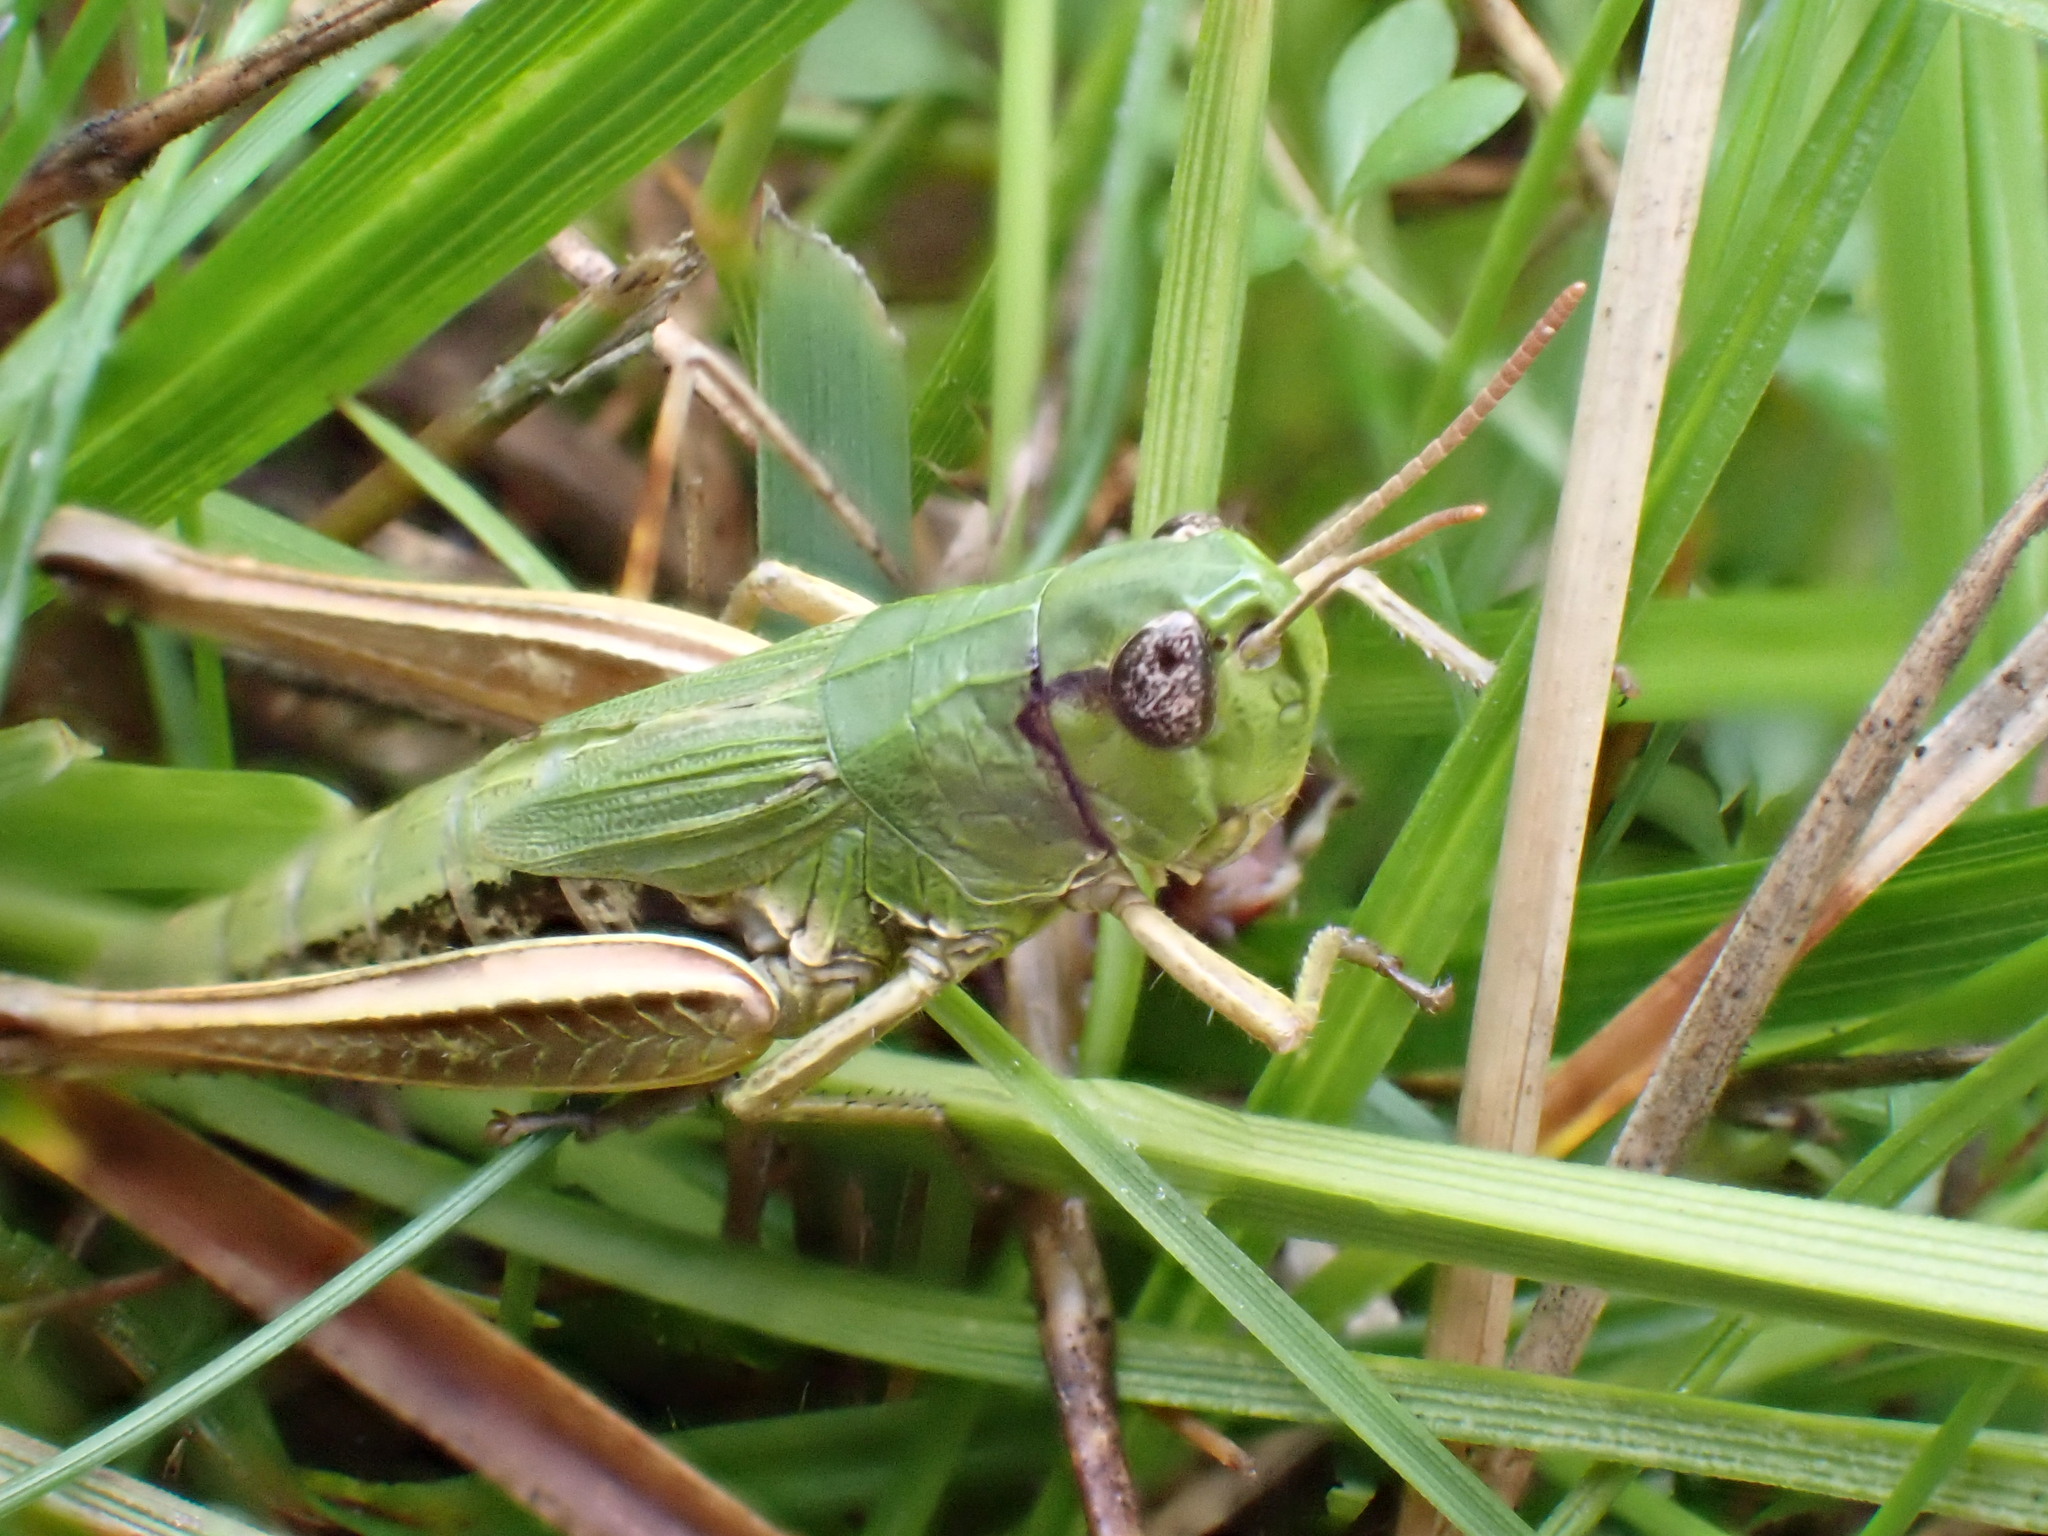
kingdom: Animalia
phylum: Arthropoda
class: Insecta
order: Orthoptera
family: Acrididae
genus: Pseudochorthippus
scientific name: Pseudochorthippus parallelus
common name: Meadow grasshopper
